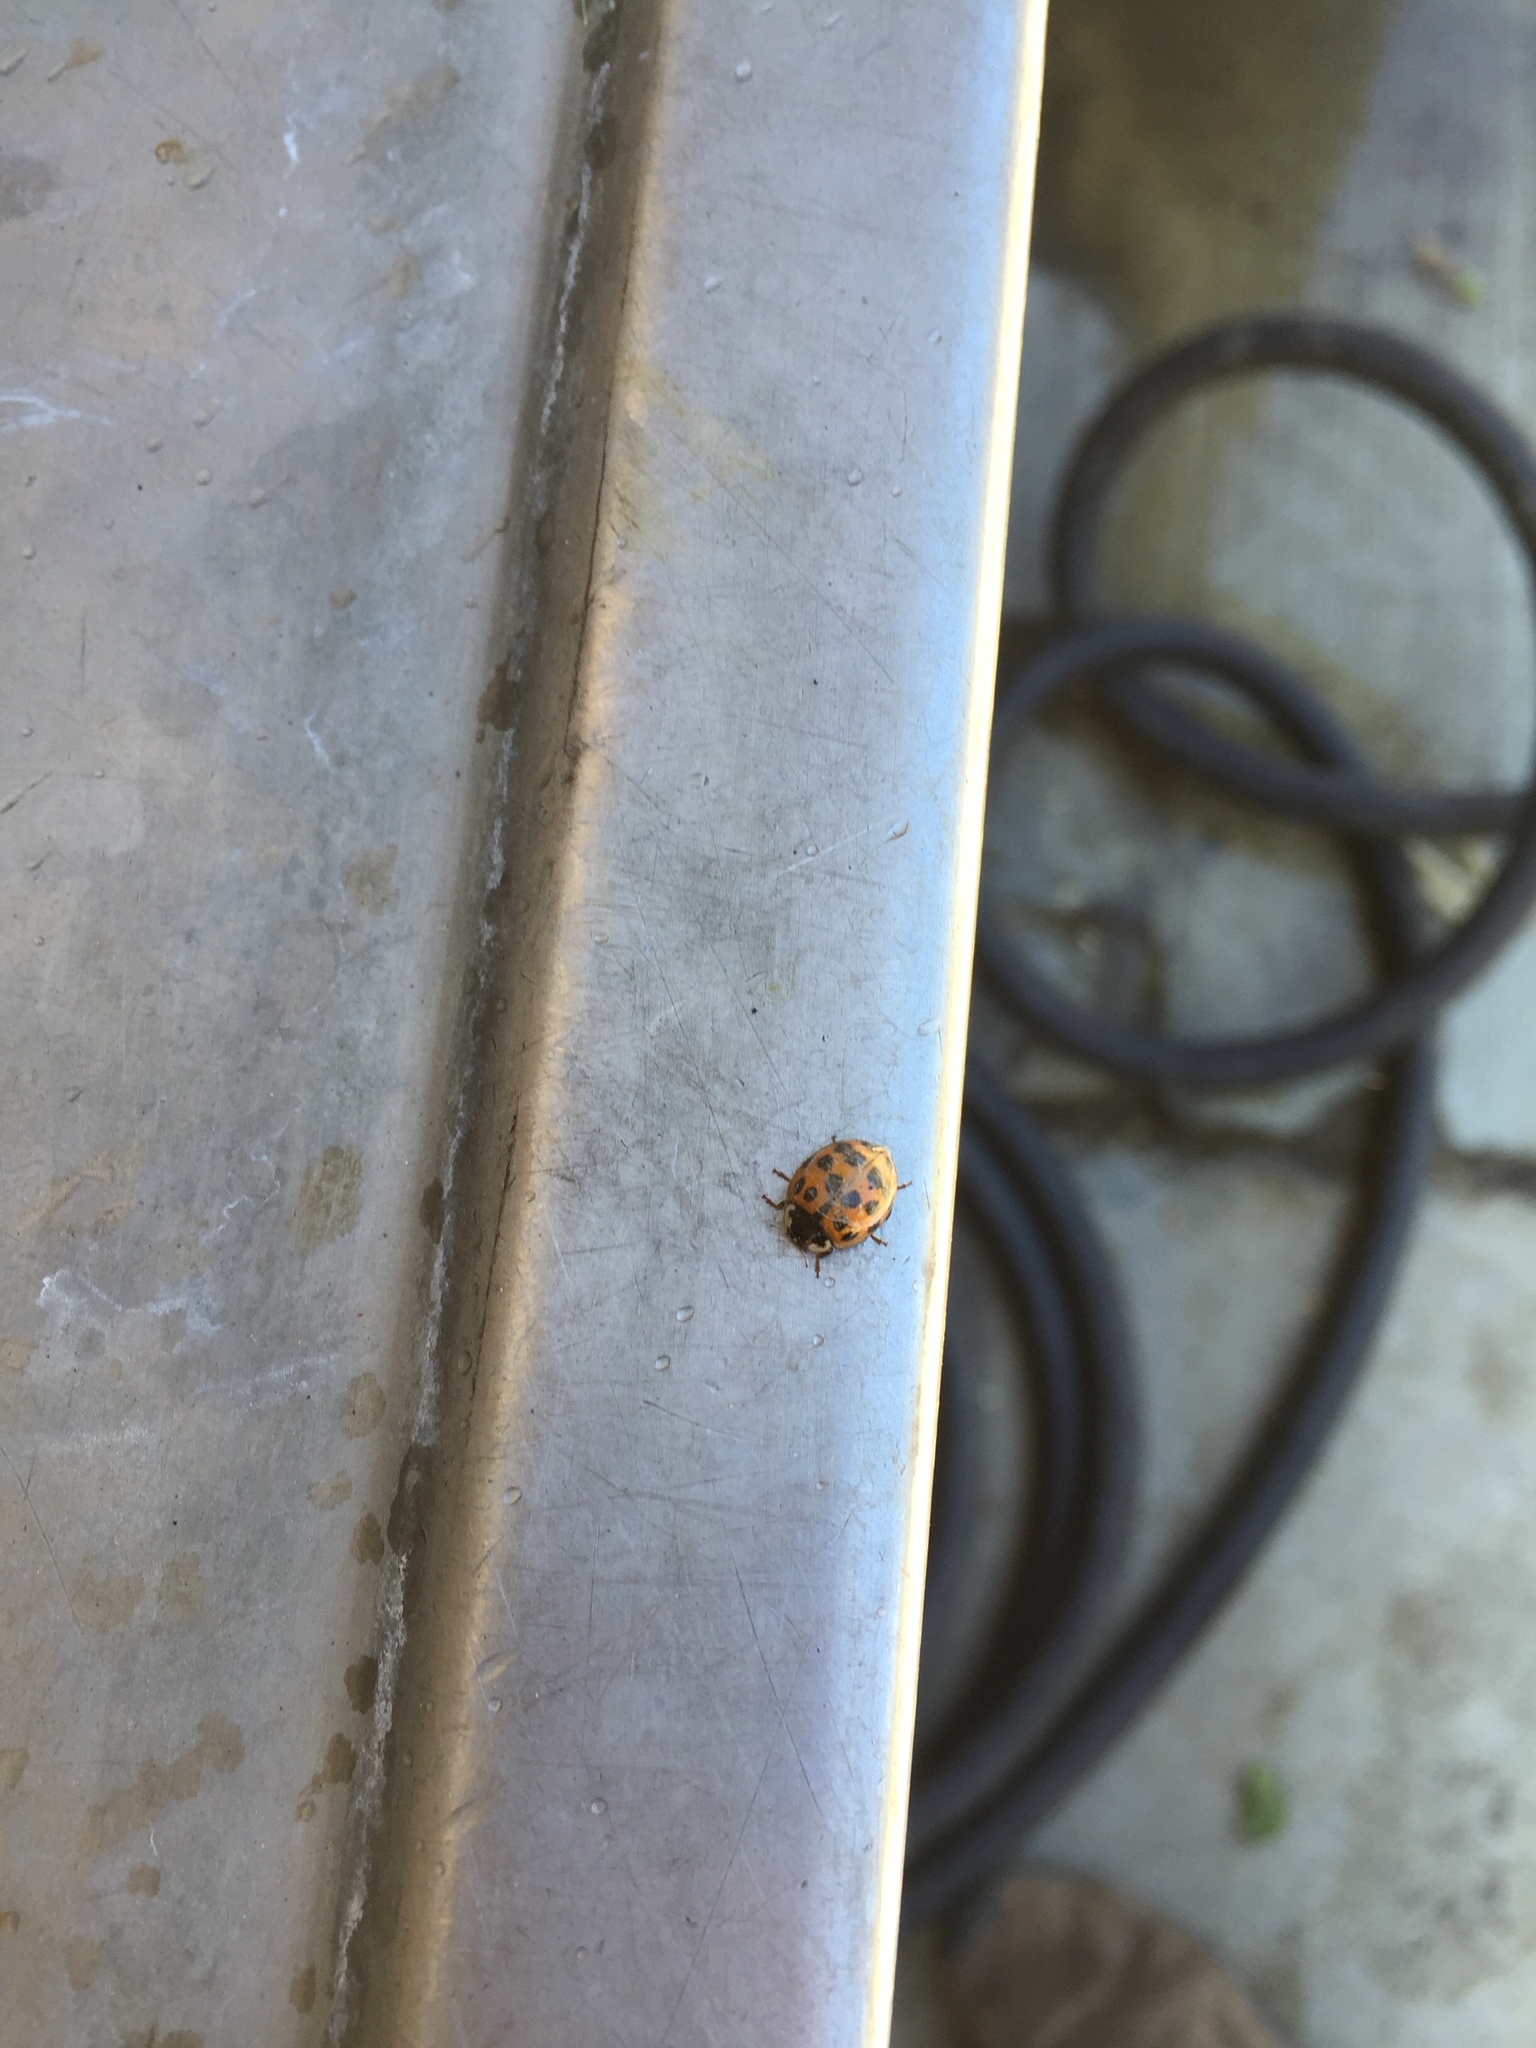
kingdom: Animalia
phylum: Arthropoda
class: Insecta
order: Coleoptera
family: Coccinellidae
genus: Harmonia
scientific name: Harmonia axyridis
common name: Harlequin ladybird
